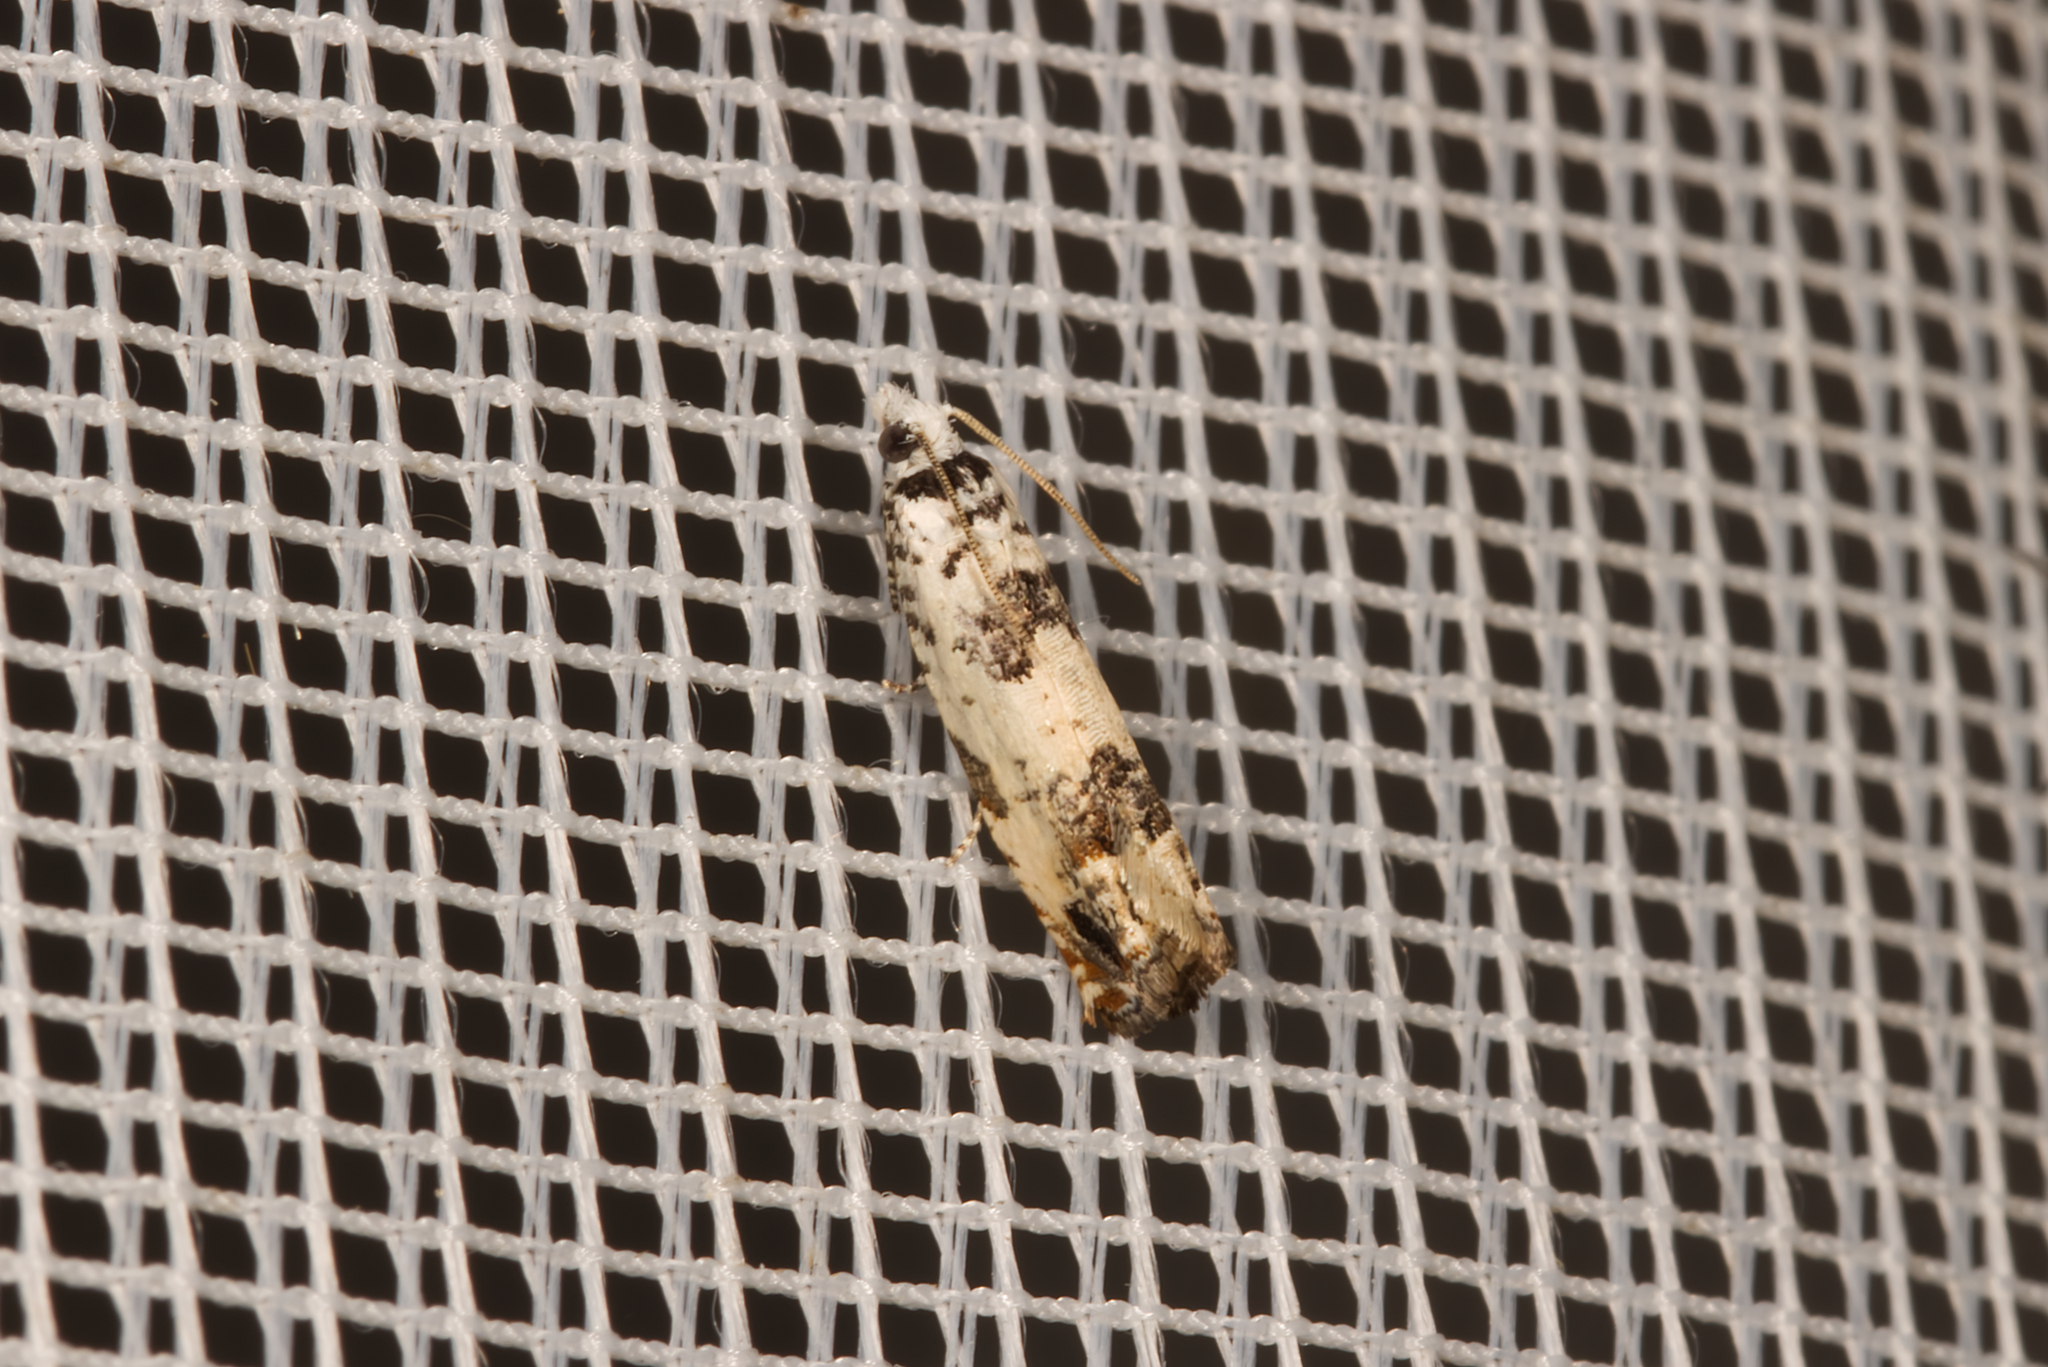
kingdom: Animalia
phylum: Arthropoda
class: Insecta
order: Lepidoptera
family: Tortricidae
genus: Eucosma
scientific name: Eucosma campoliliana
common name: Marbled bell
